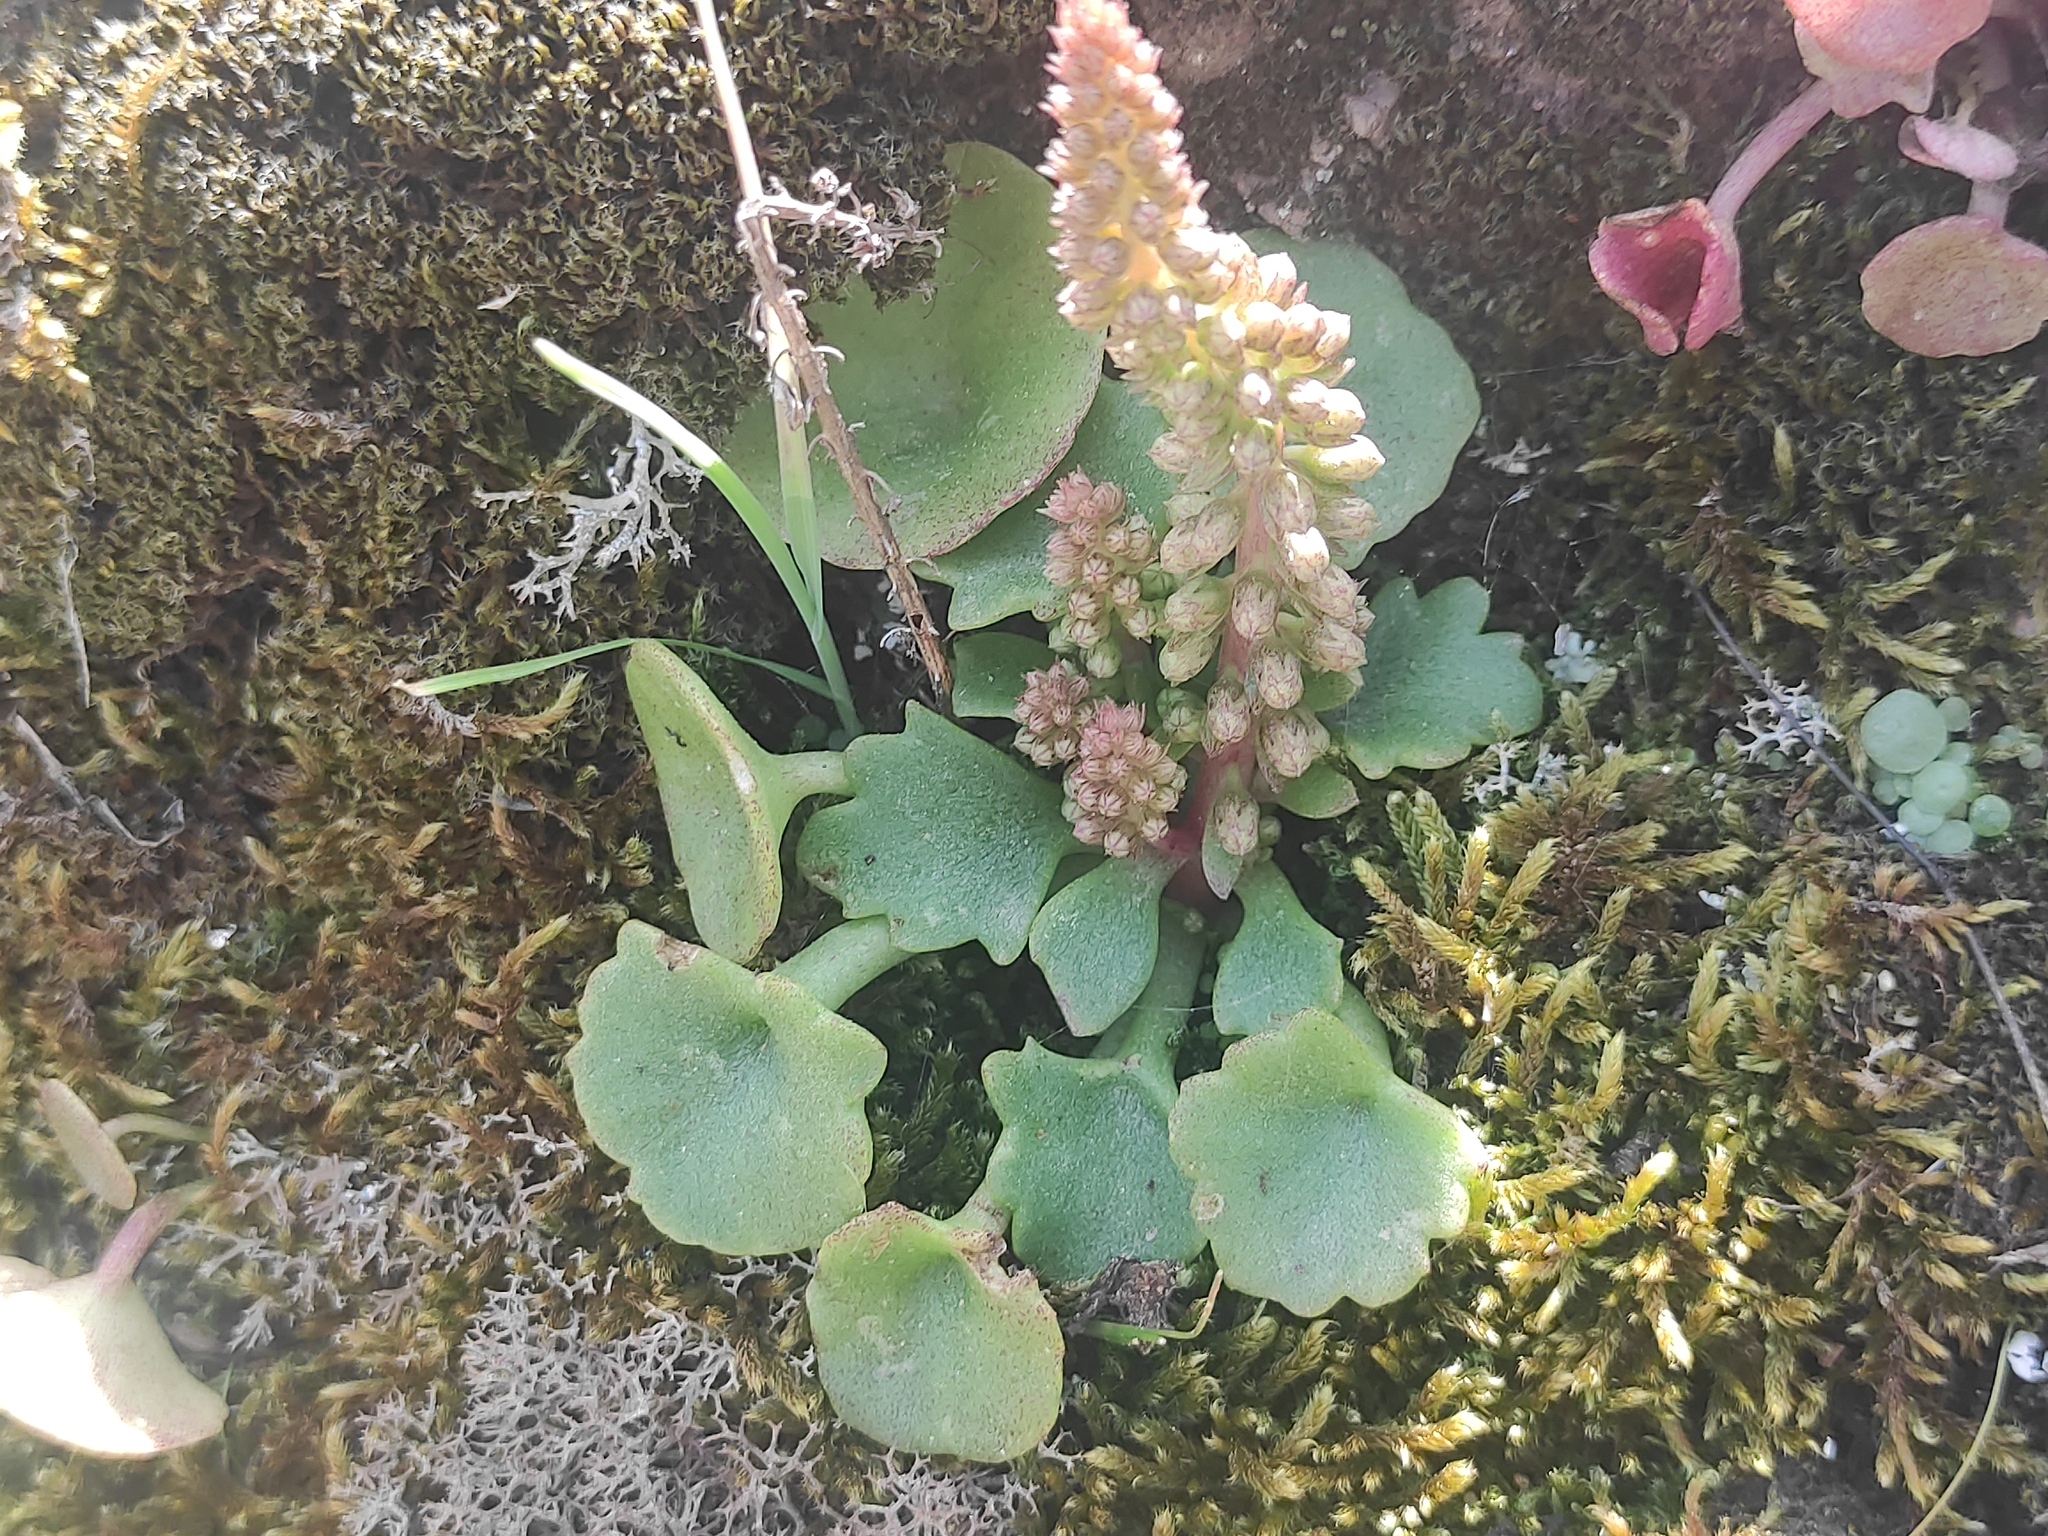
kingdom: Plantae
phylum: Tracheophyta
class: Magnoliopsida
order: Saxifragales
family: Crassulaceae
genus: Umbilicus
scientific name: Umbilicus rupestris
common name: Navelwort
